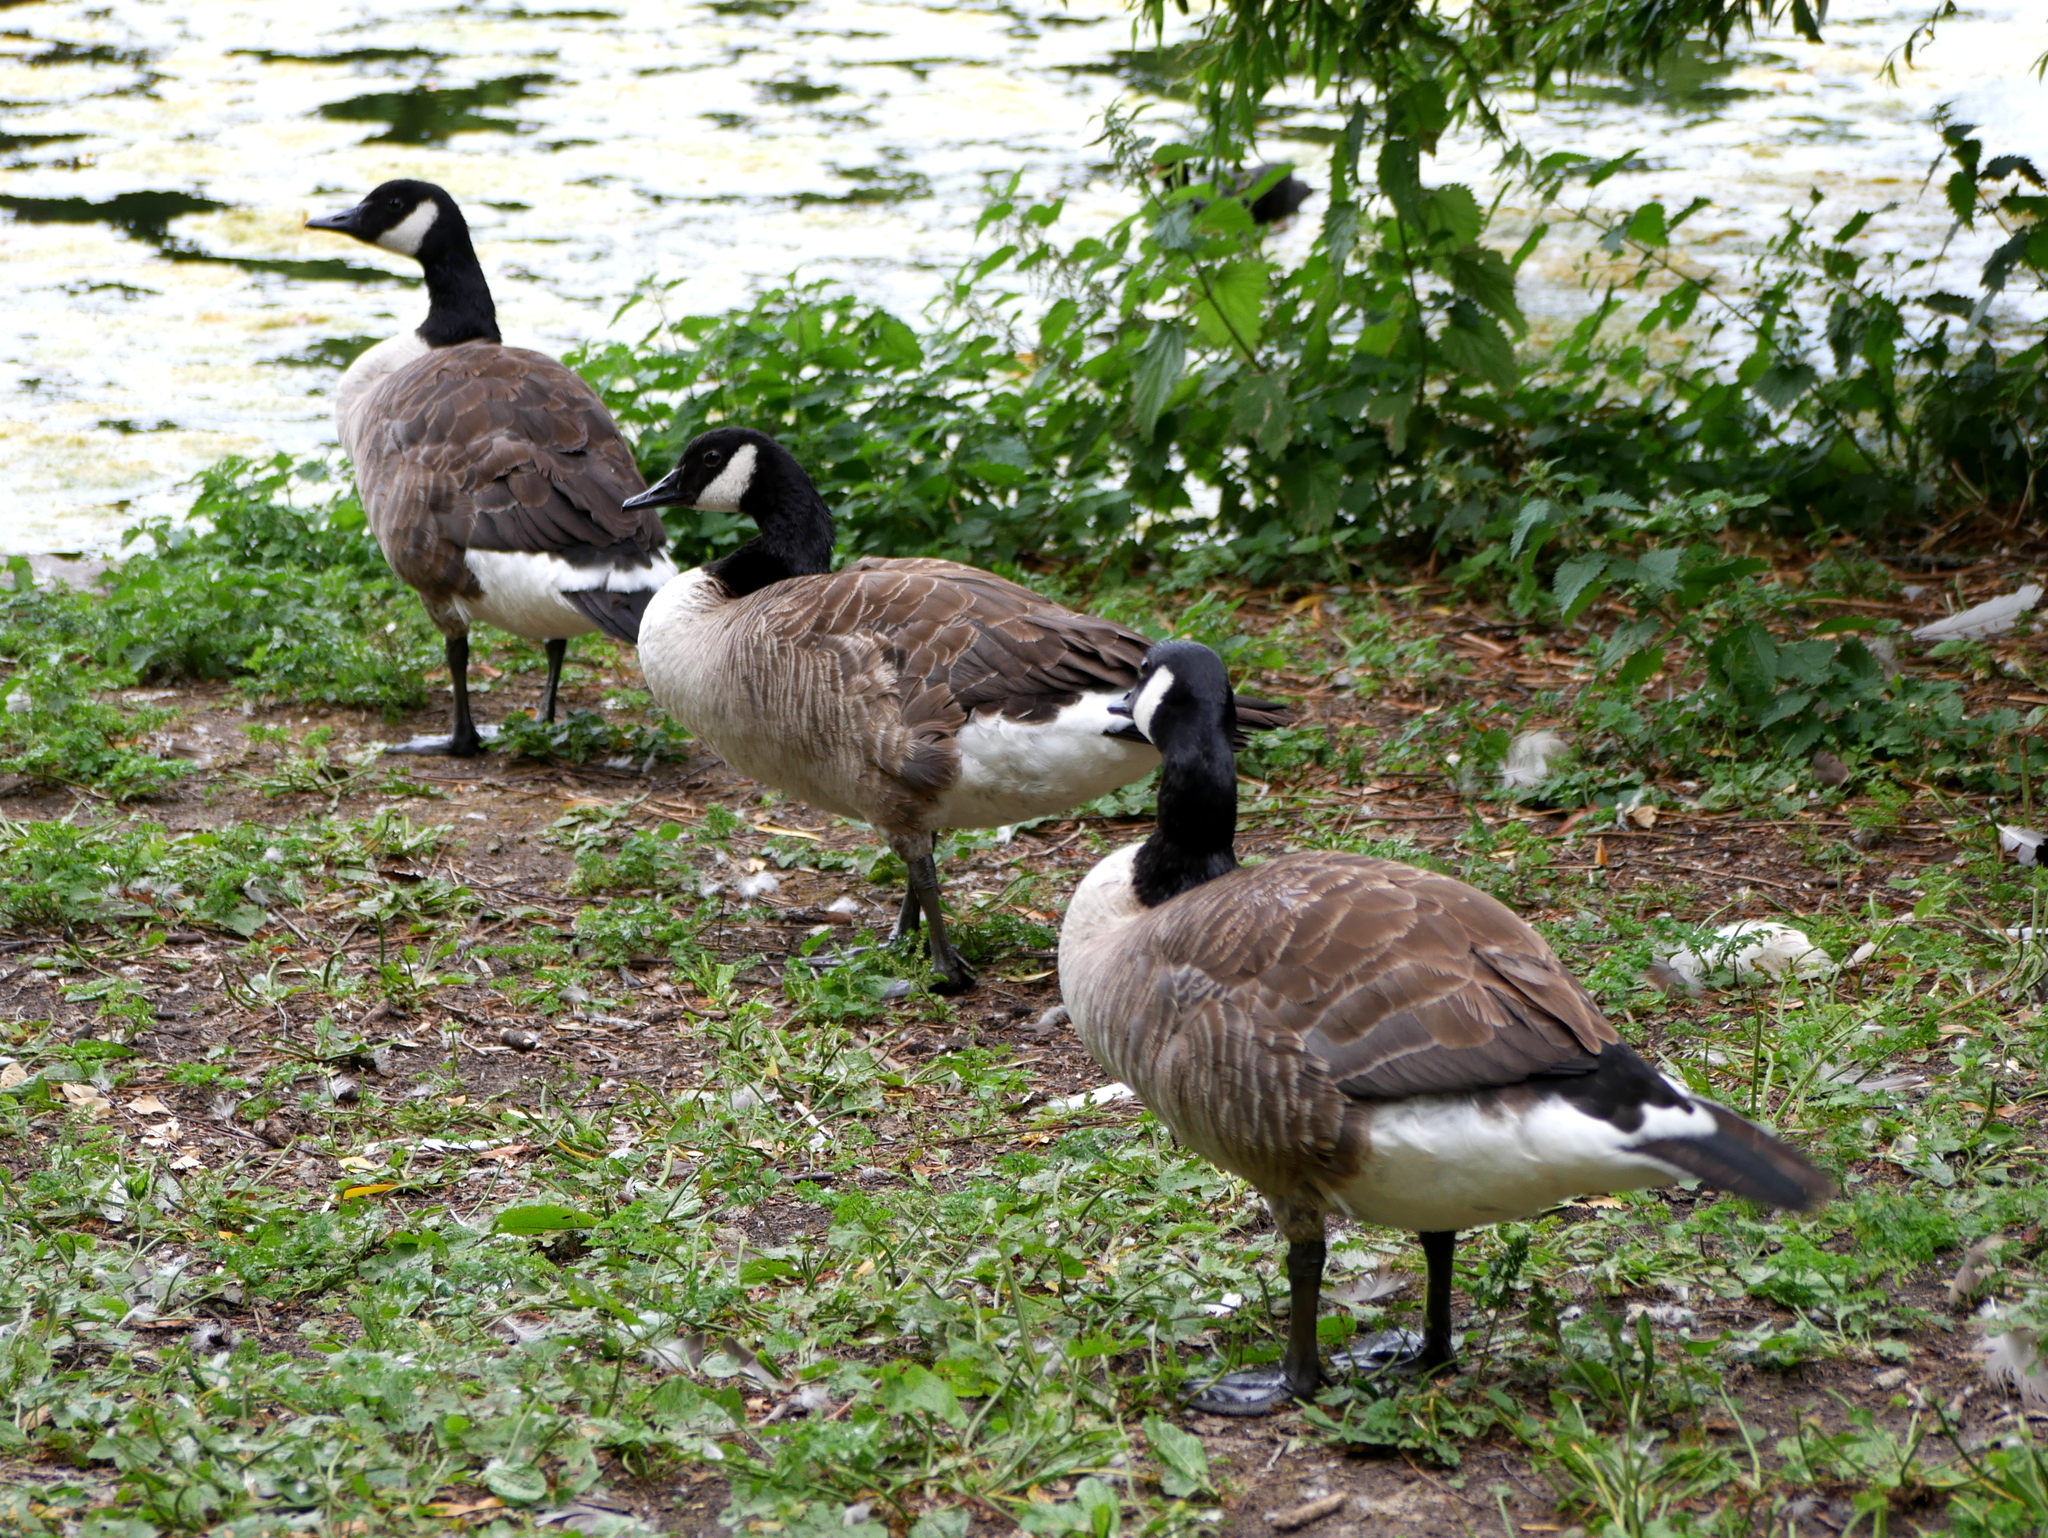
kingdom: Animalia
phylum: Chordata
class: Aves
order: Anseriformes
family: Anatidae
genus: Branta
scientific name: Branta canadensis
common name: Canada goose
